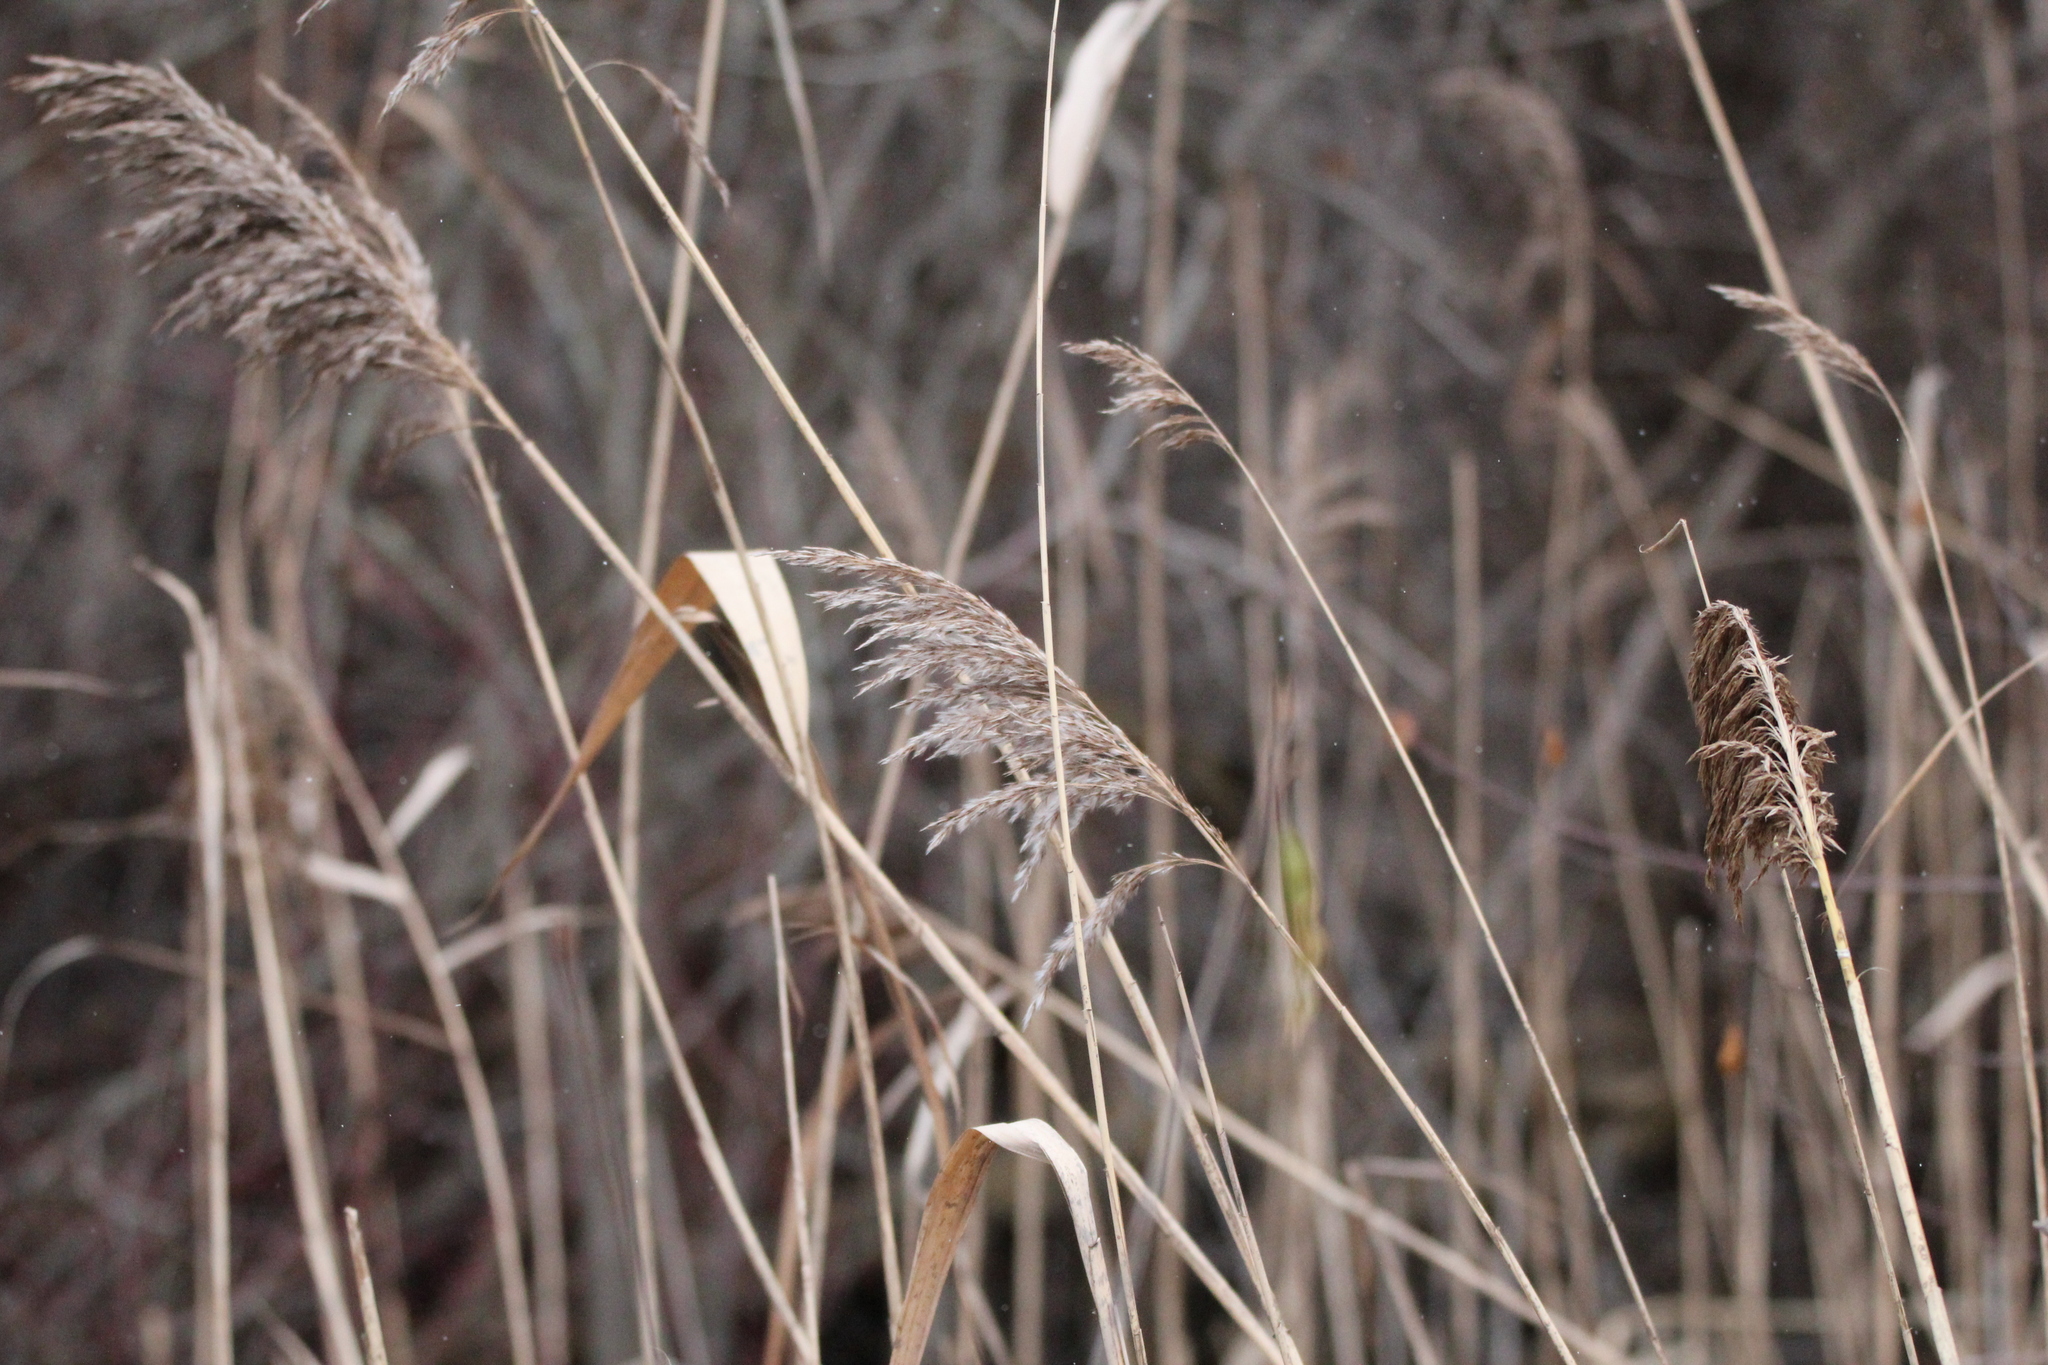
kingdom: Plantae
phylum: Tracheophyta
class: Liliopsida
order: Poales
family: Poaceae
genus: Phragmites
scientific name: Phragmites australis
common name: Common reed
